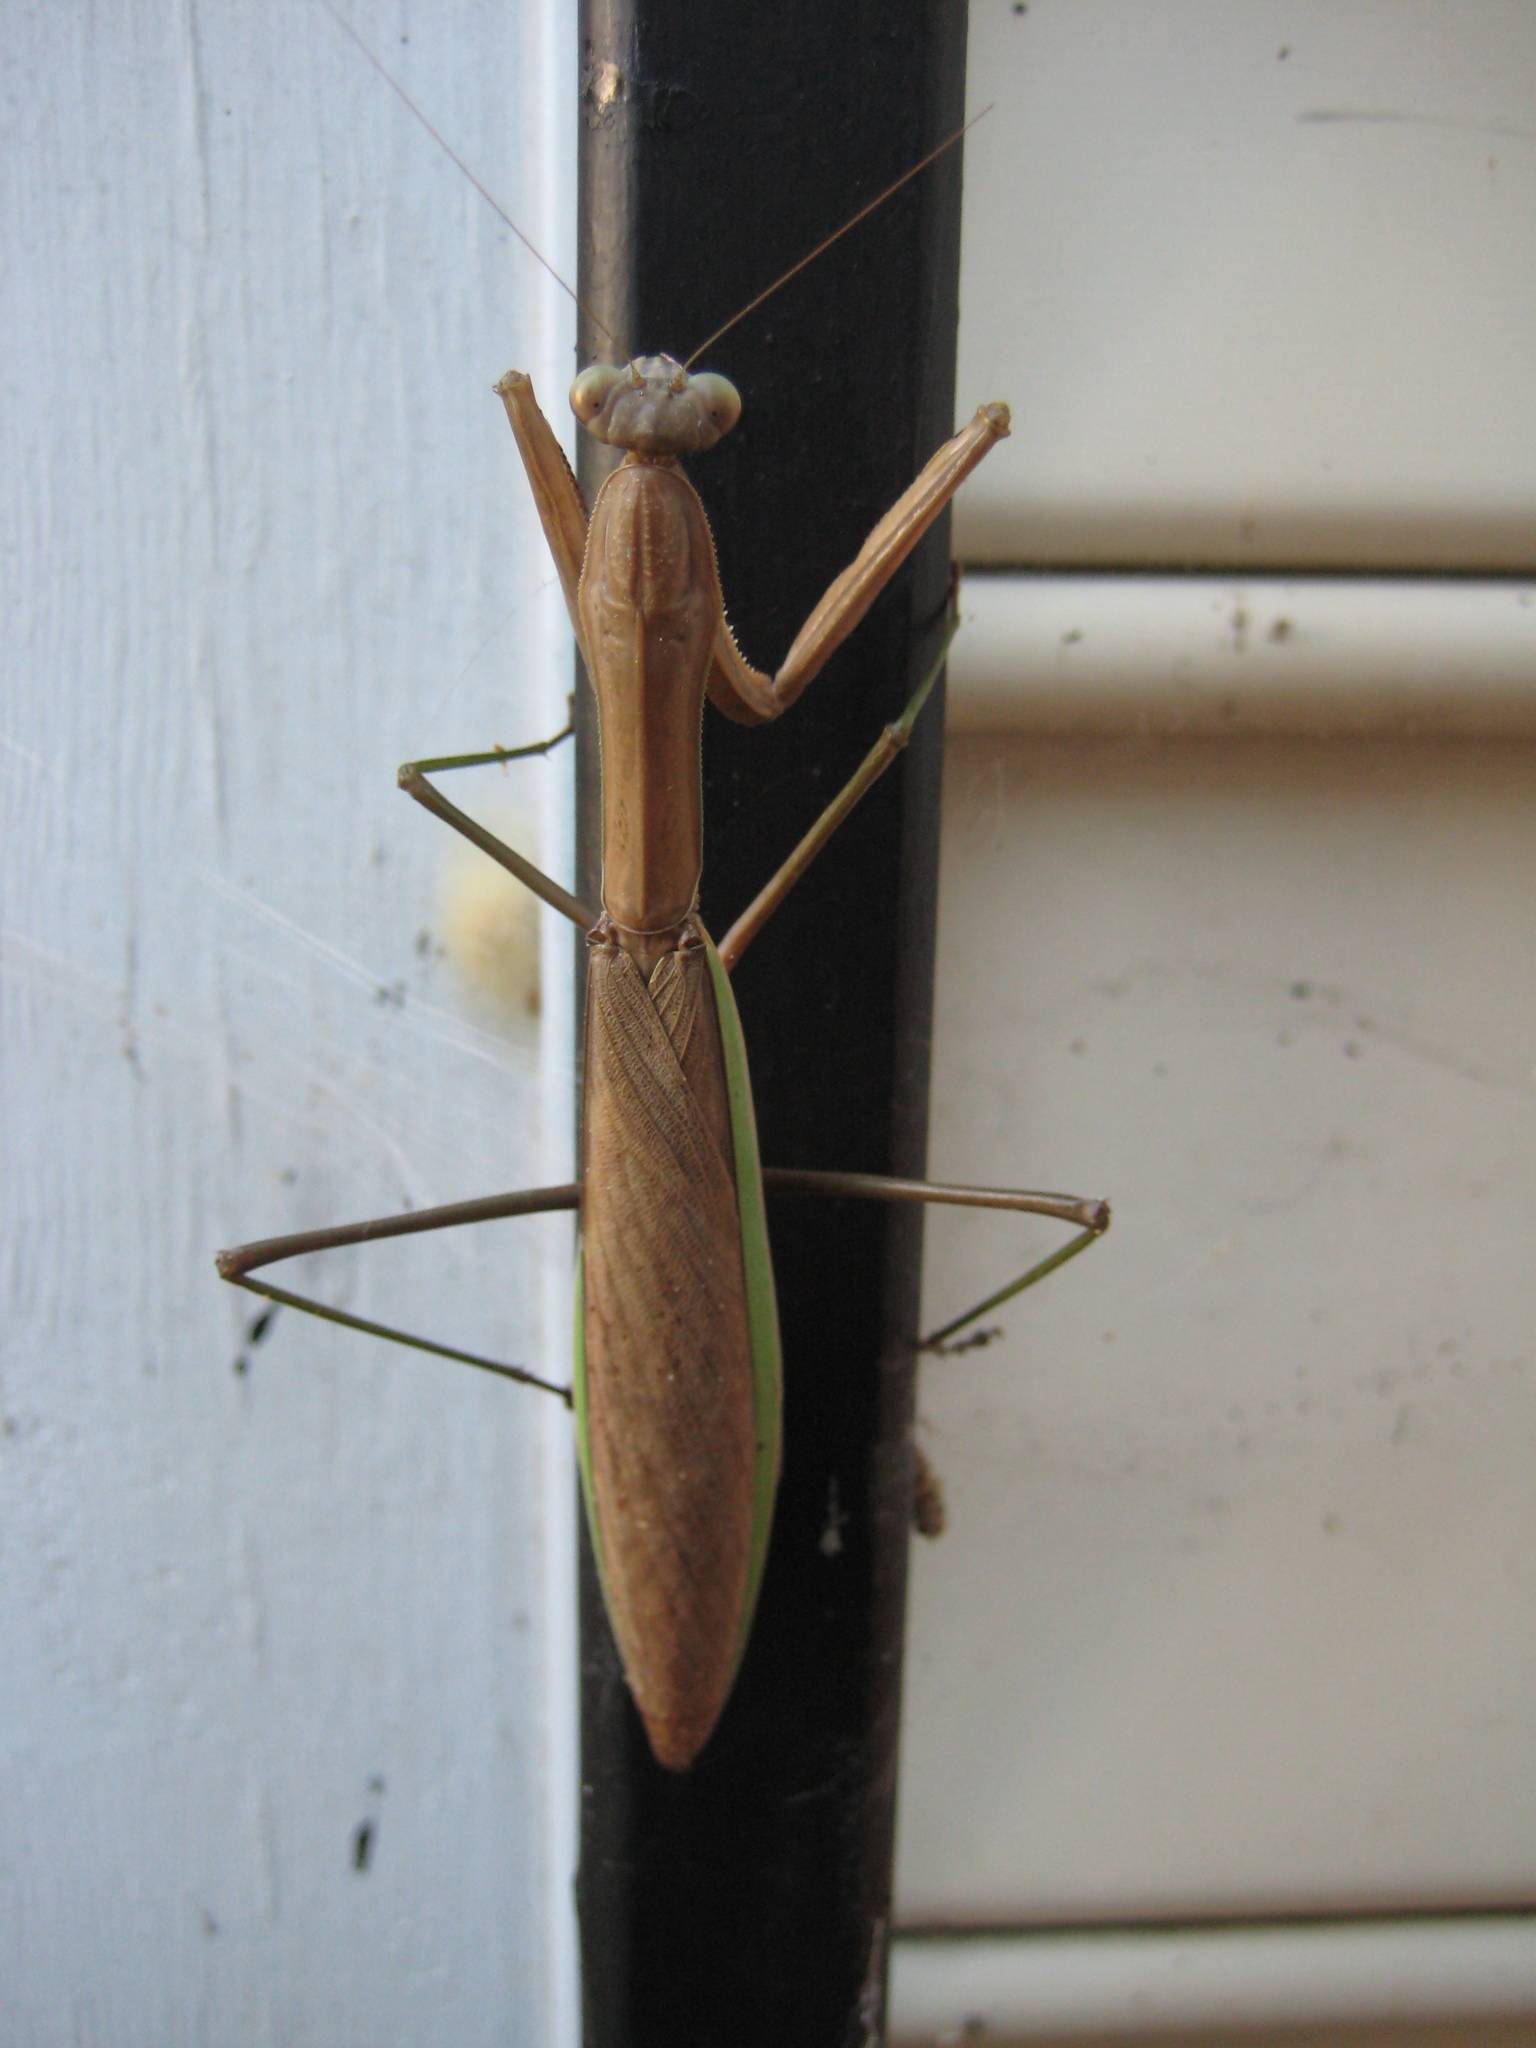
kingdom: Animalia
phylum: Arthropoda
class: Insecta
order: Mantodea
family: Mantidae
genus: Tenodera
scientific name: Tenodera sinensis
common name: Chinese mantis
